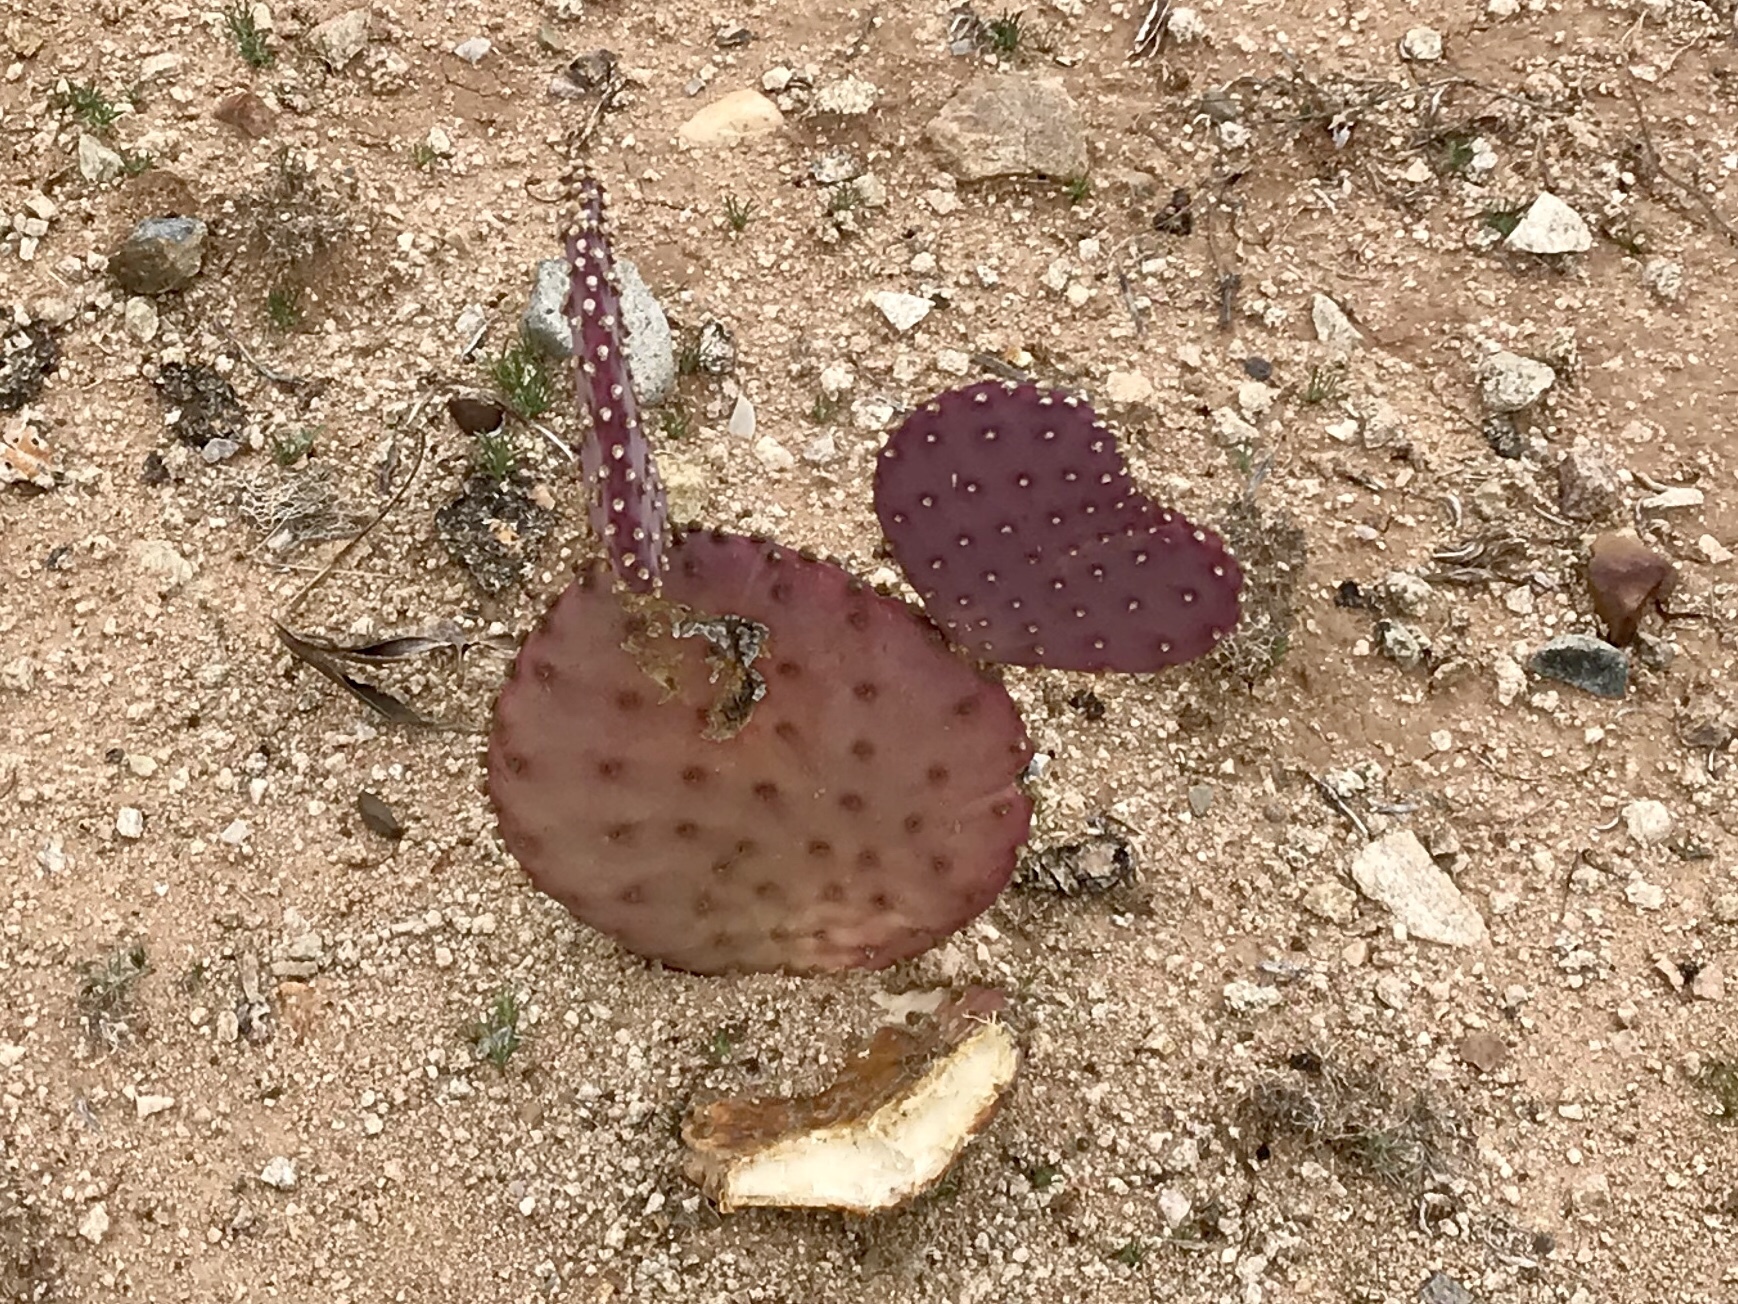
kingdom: Plantae
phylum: Tracheophyta
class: Magnoliopsida
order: Caryophyllales
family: Cactaceae
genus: Opuntia
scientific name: Opuntia gosseliniana
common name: Violet prickly-pear
